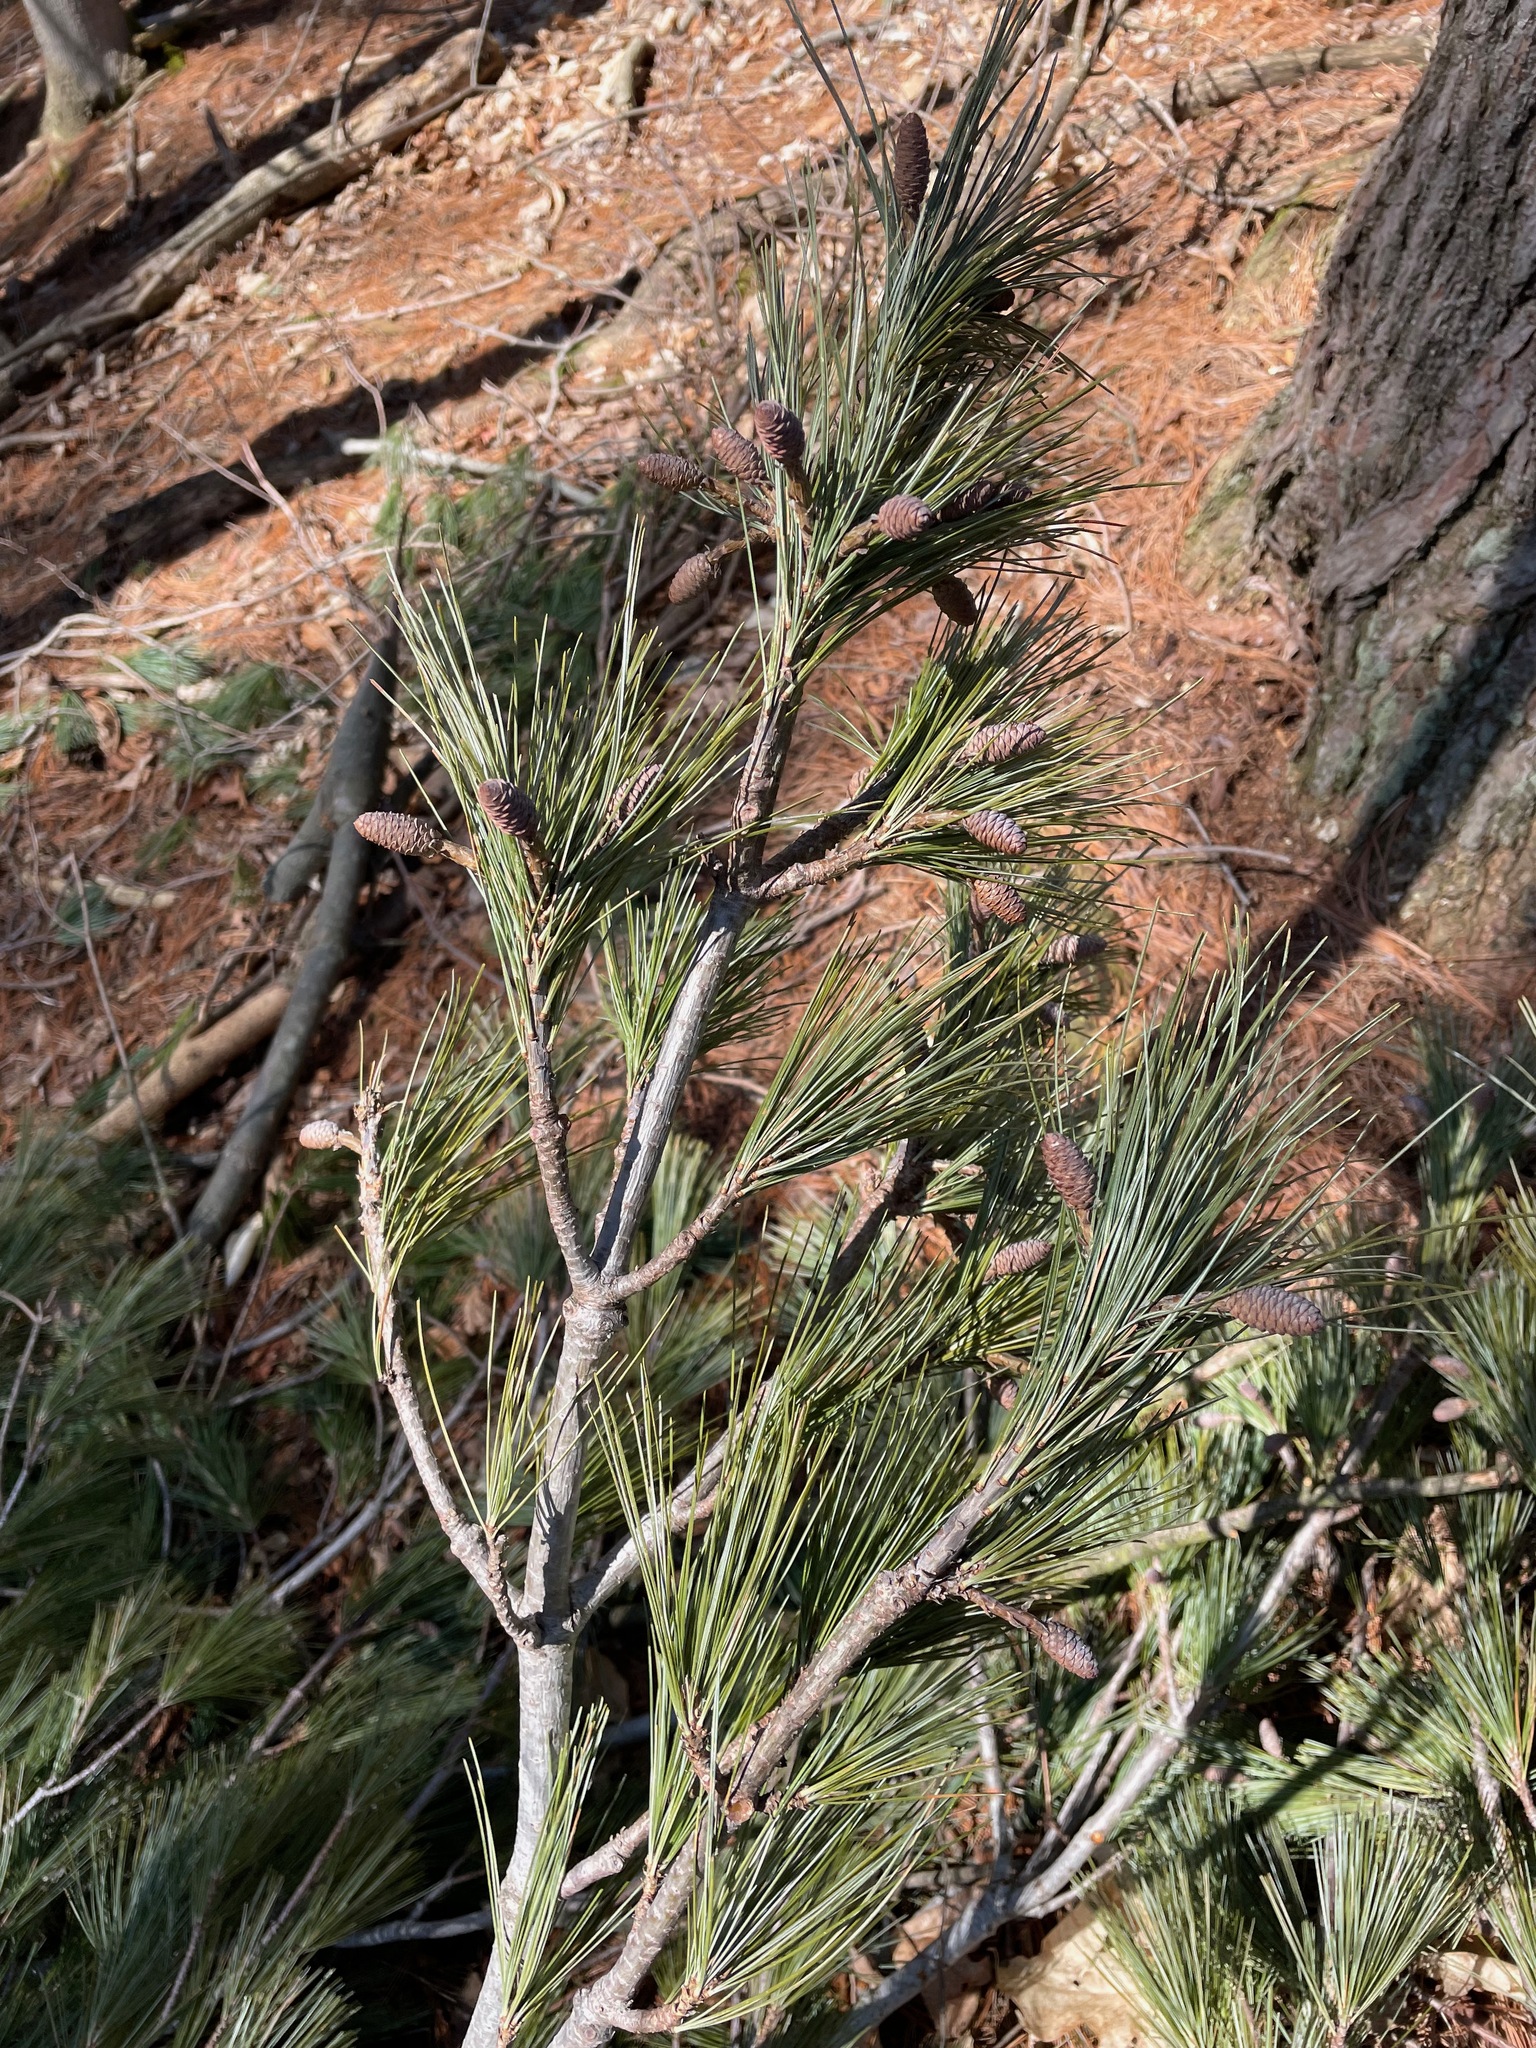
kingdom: Plantae
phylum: Tracheophyta
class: Pinopsida
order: Pinales
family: Pinaceae
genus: Pinus
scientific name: Pinus strobus
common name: Weymouth pine
